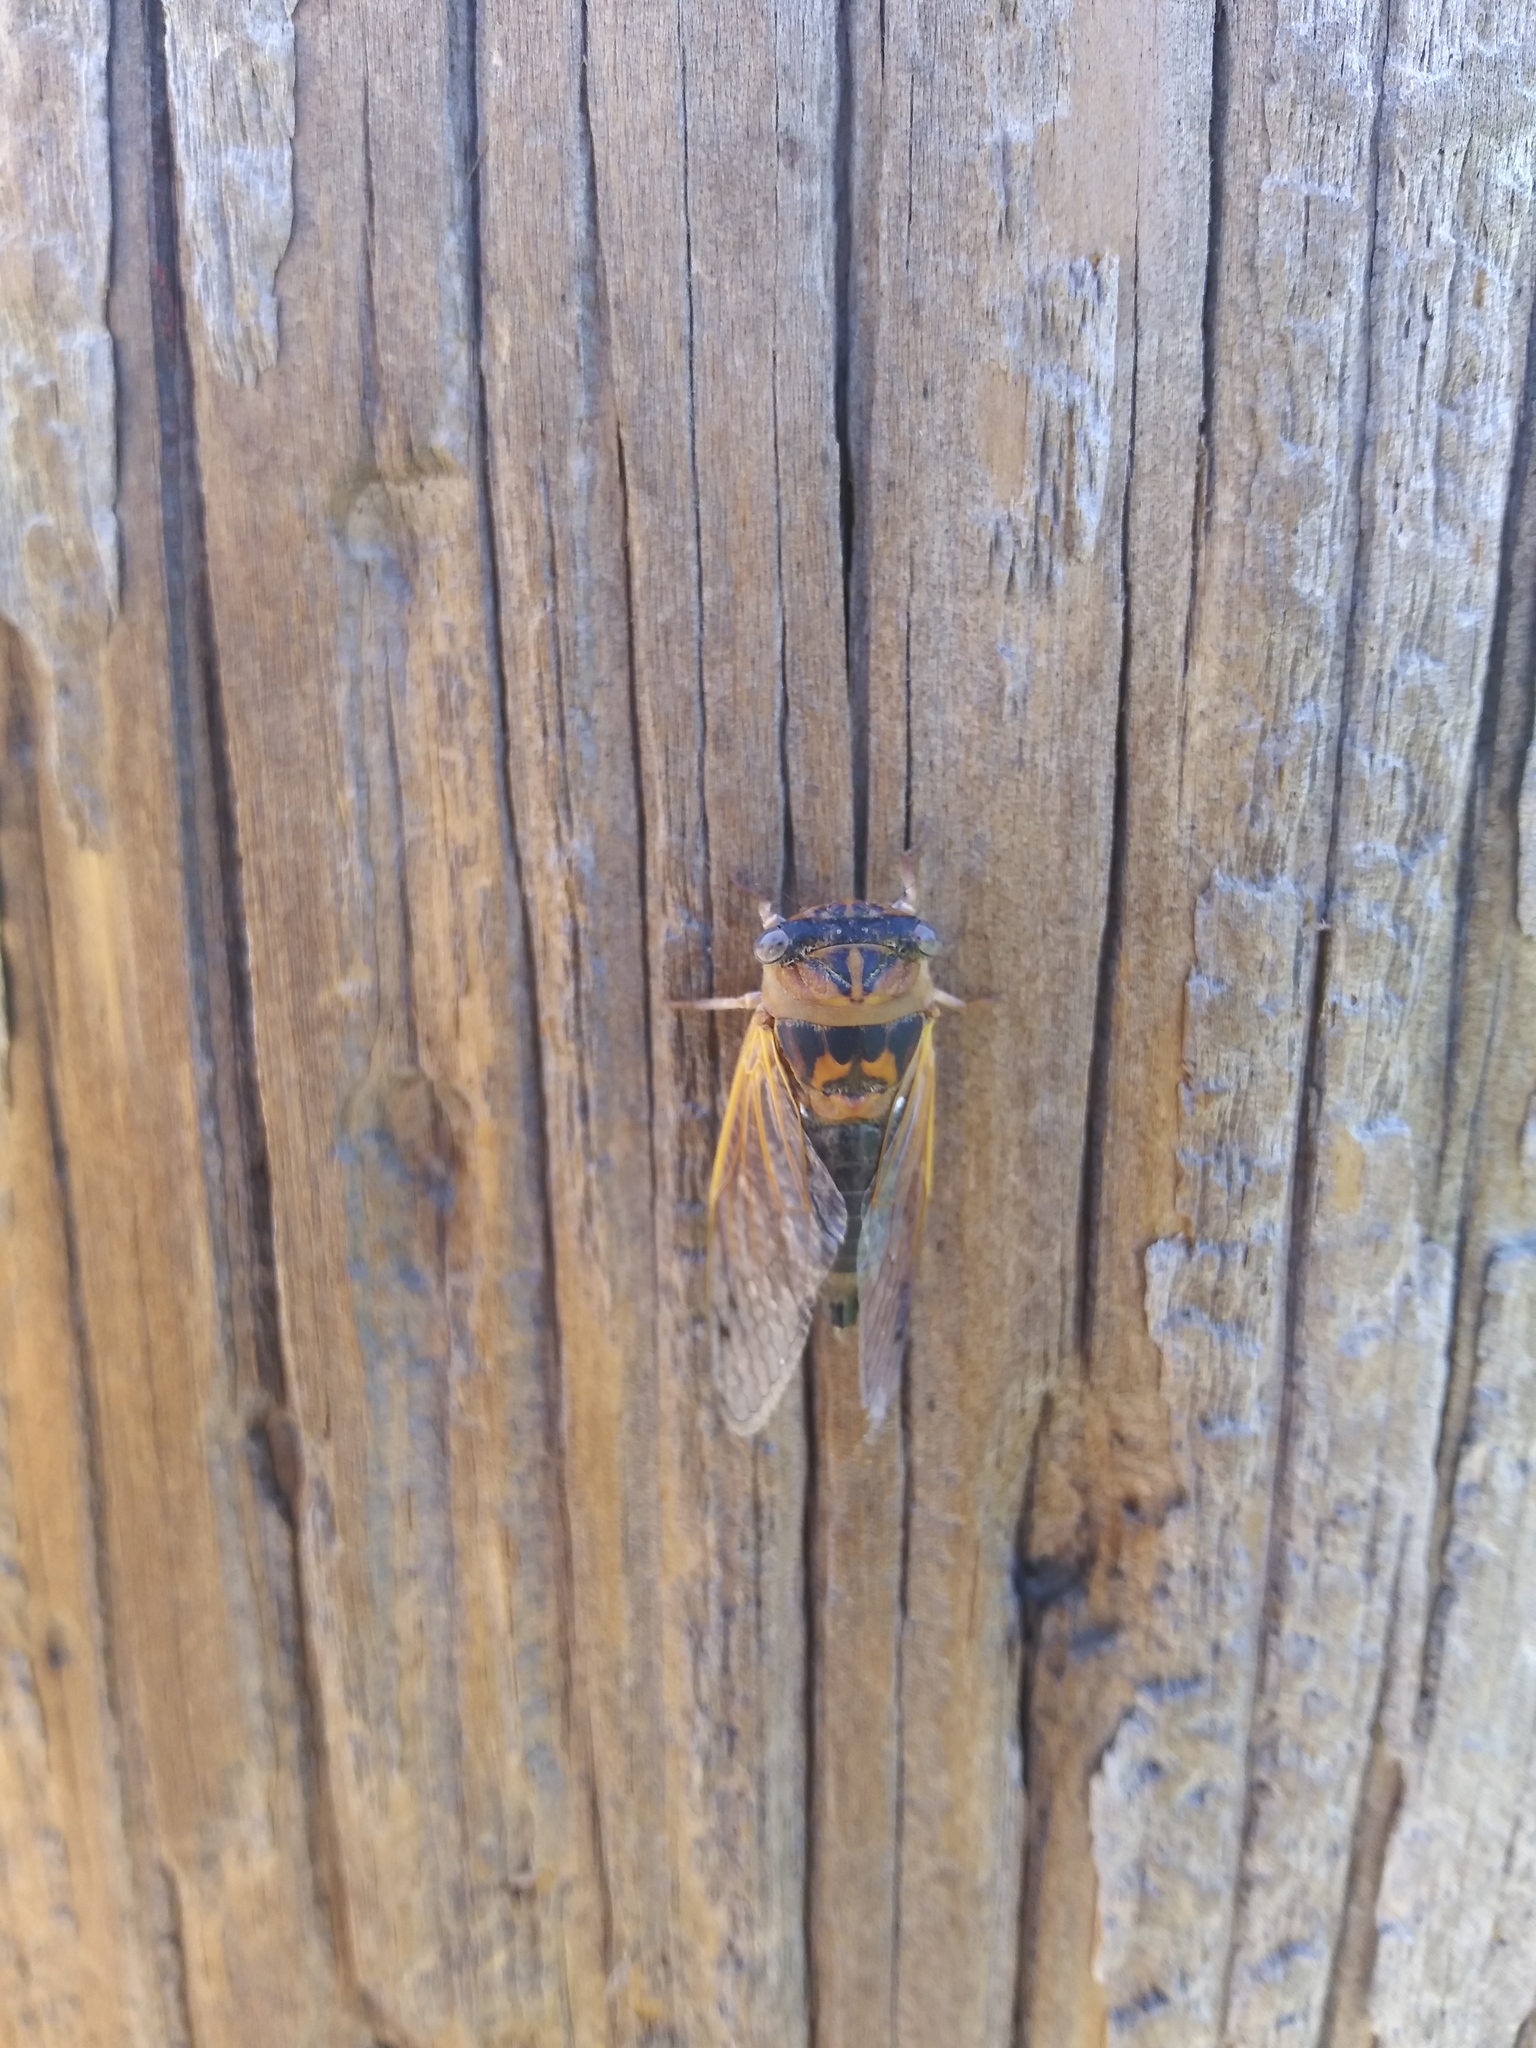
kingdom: Animalia
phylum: Arthropoda
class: Insecta
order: Hemiptera
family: Cicadidae
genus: Neotibicen
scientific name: Neotibicen aurifer
